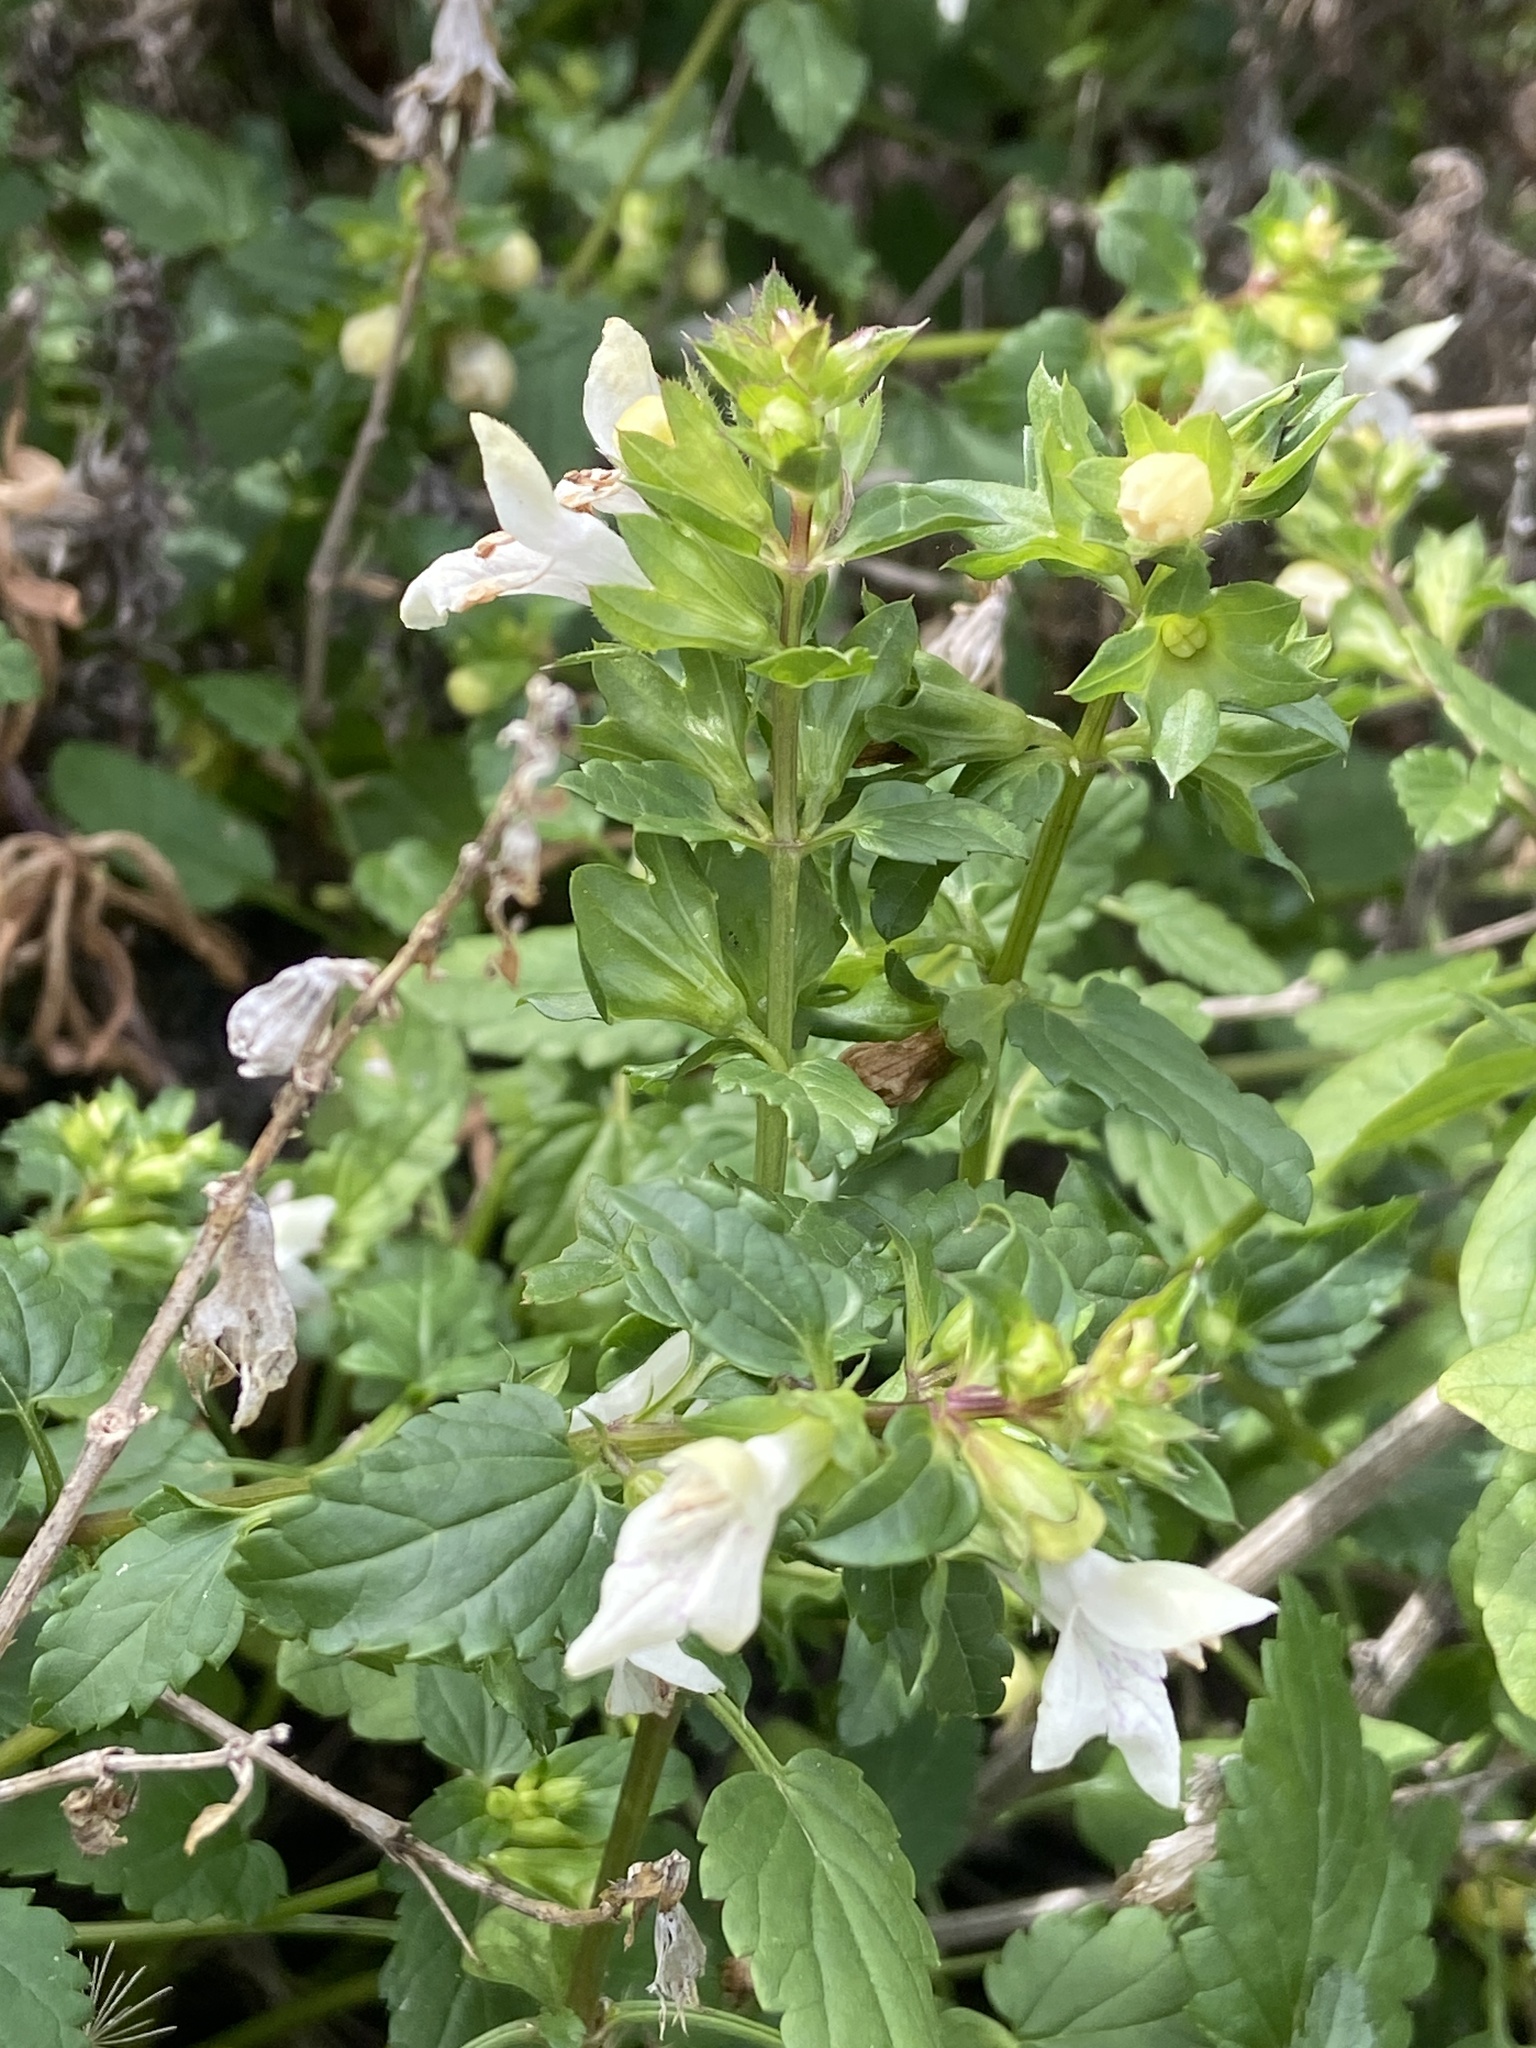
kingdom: Plantae
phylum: Tracheophyta
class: Magnoliopsida
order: Lamiales
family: Lamiaceae
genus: Prasium
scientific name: Prasium majus
